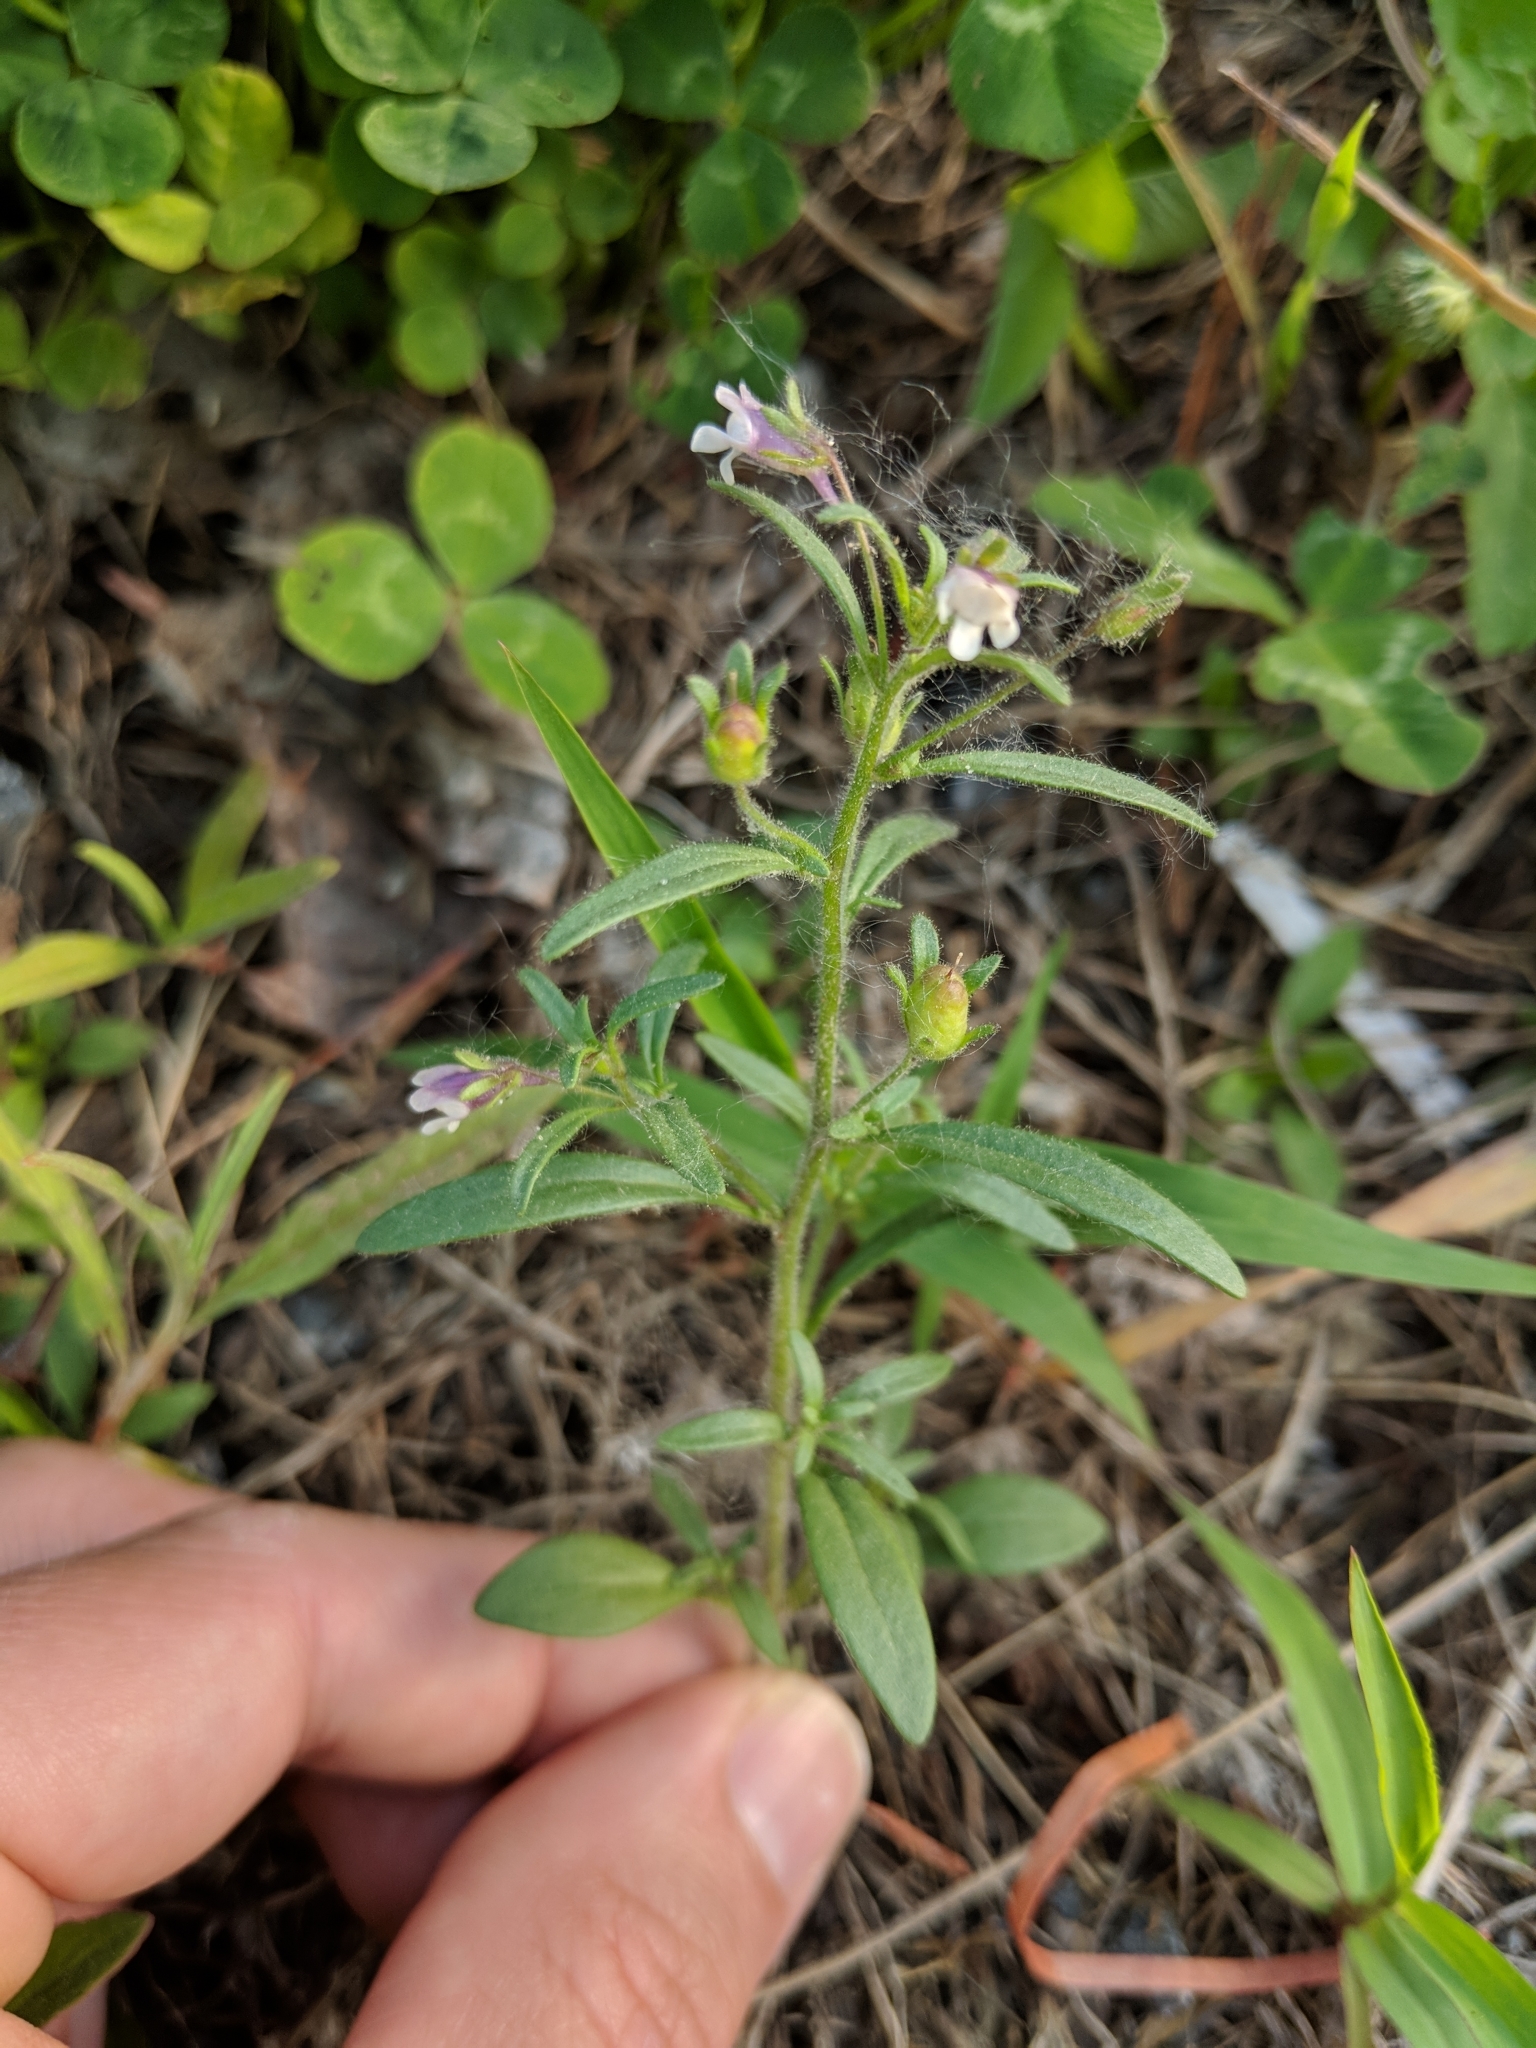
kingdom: Plantae
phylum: Tracheophyta
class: Magnoliopsida
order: Lamiales
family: Plantaginaceae
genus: Chaenorhinum
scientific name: Chaenorhinum minus
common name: Dwarf snapdragon
